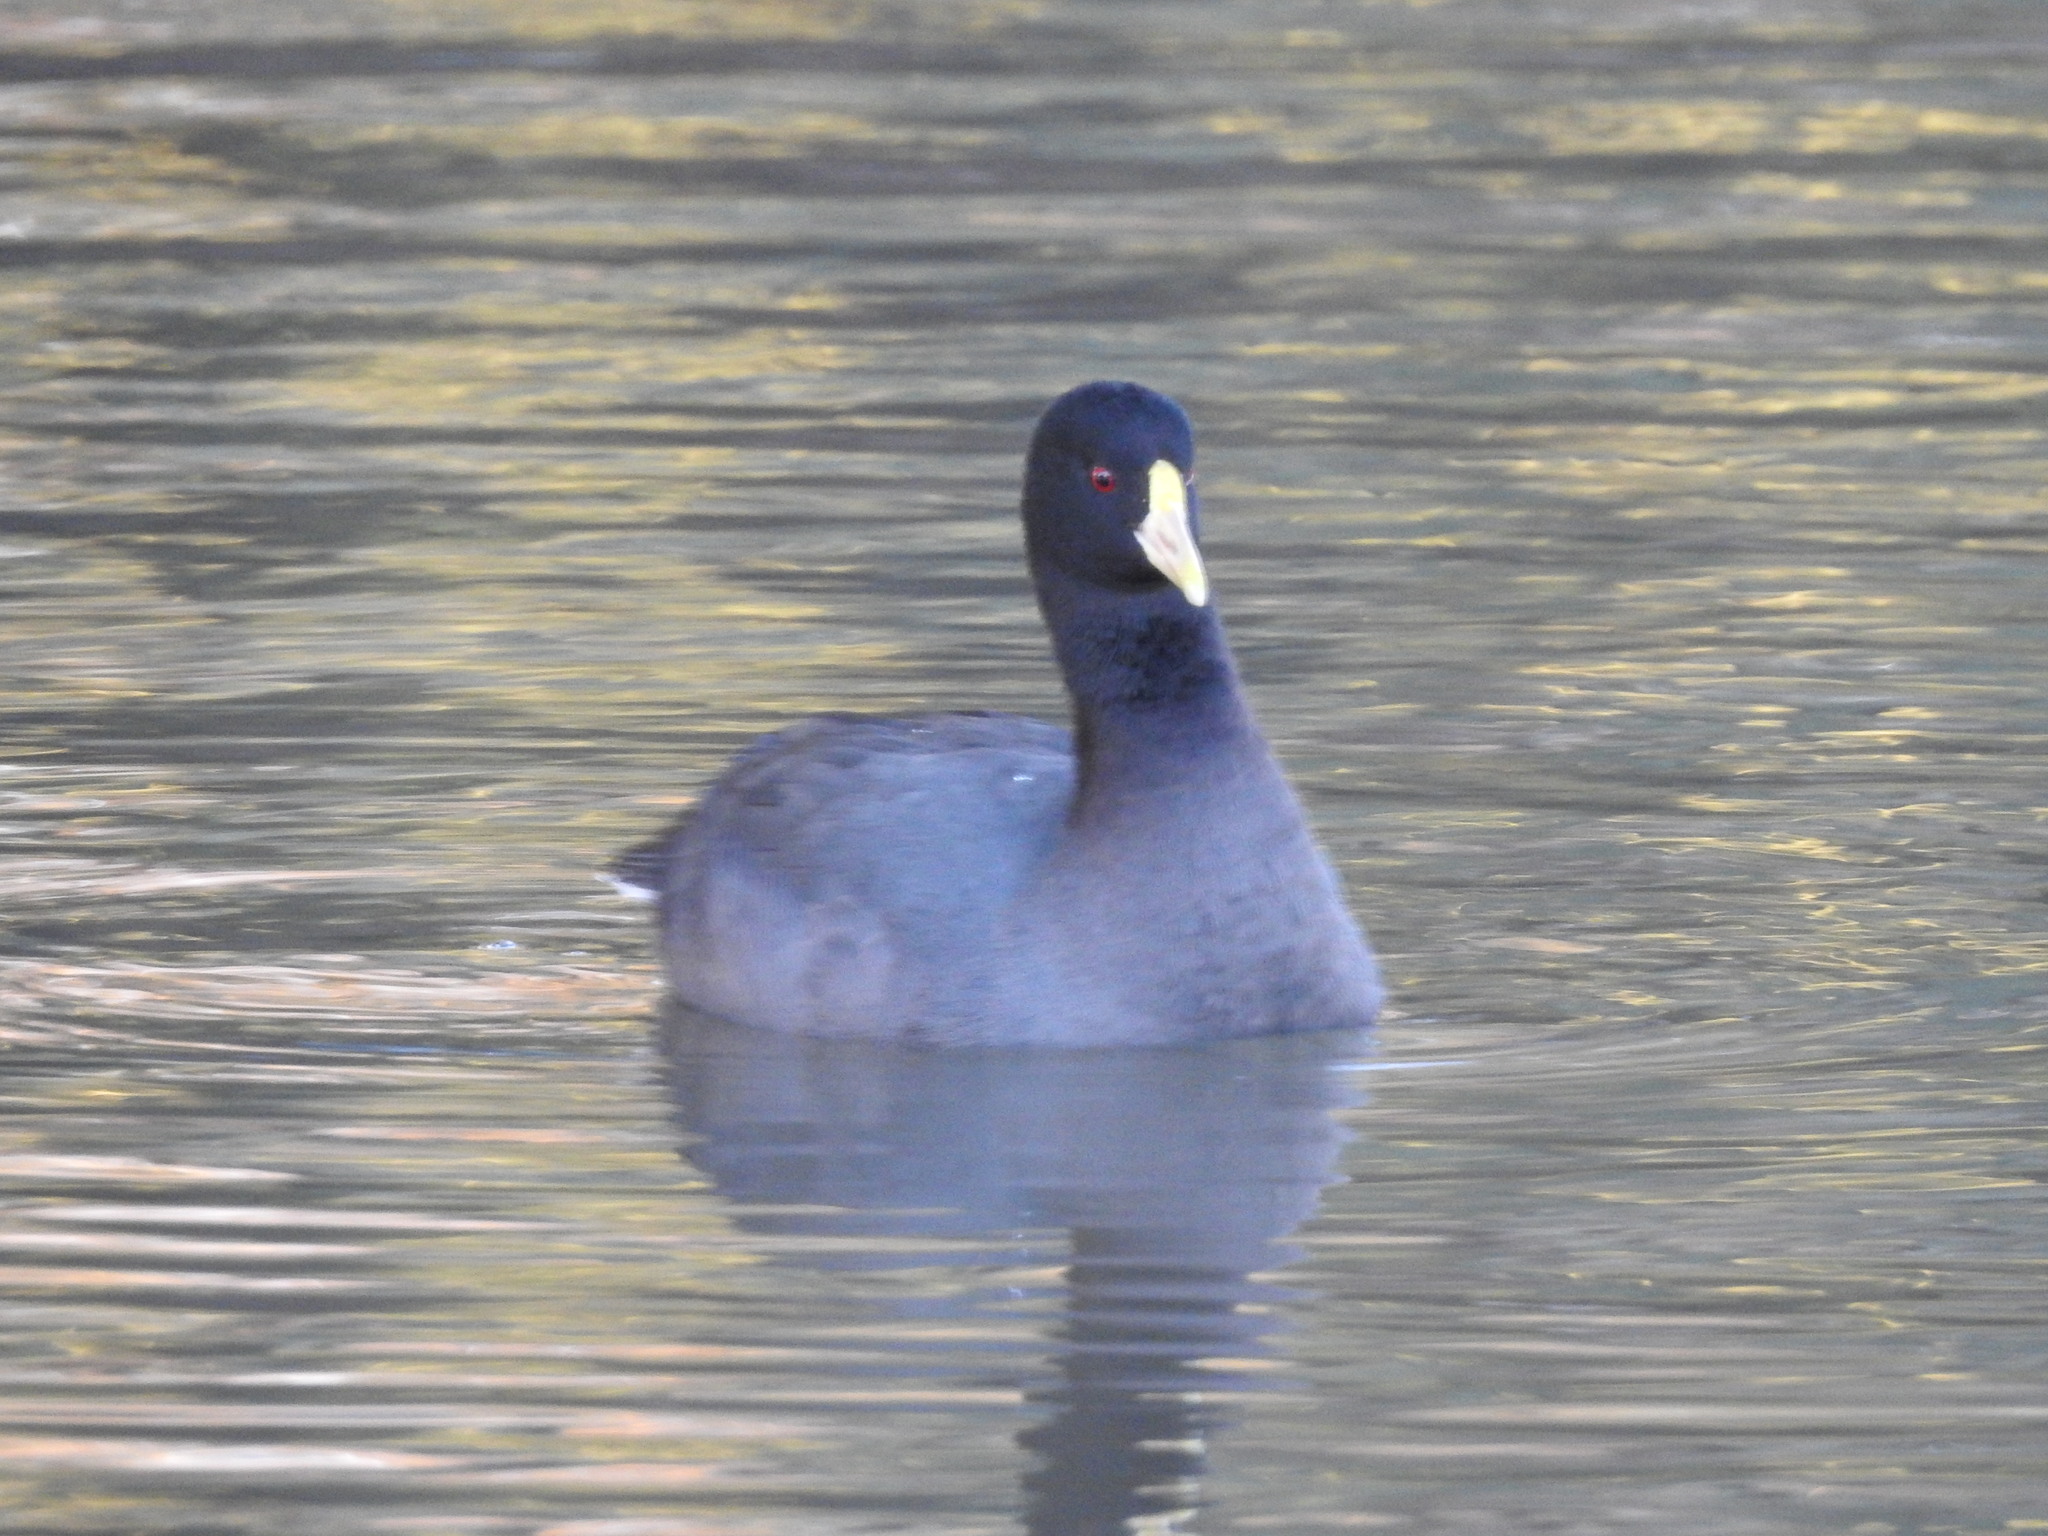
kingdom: Animalia
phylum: Chordata
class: Aves
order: Gruiformes
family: Rallidae
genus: Fulica
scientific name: Fulica leucoptera
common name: White-winged coot
